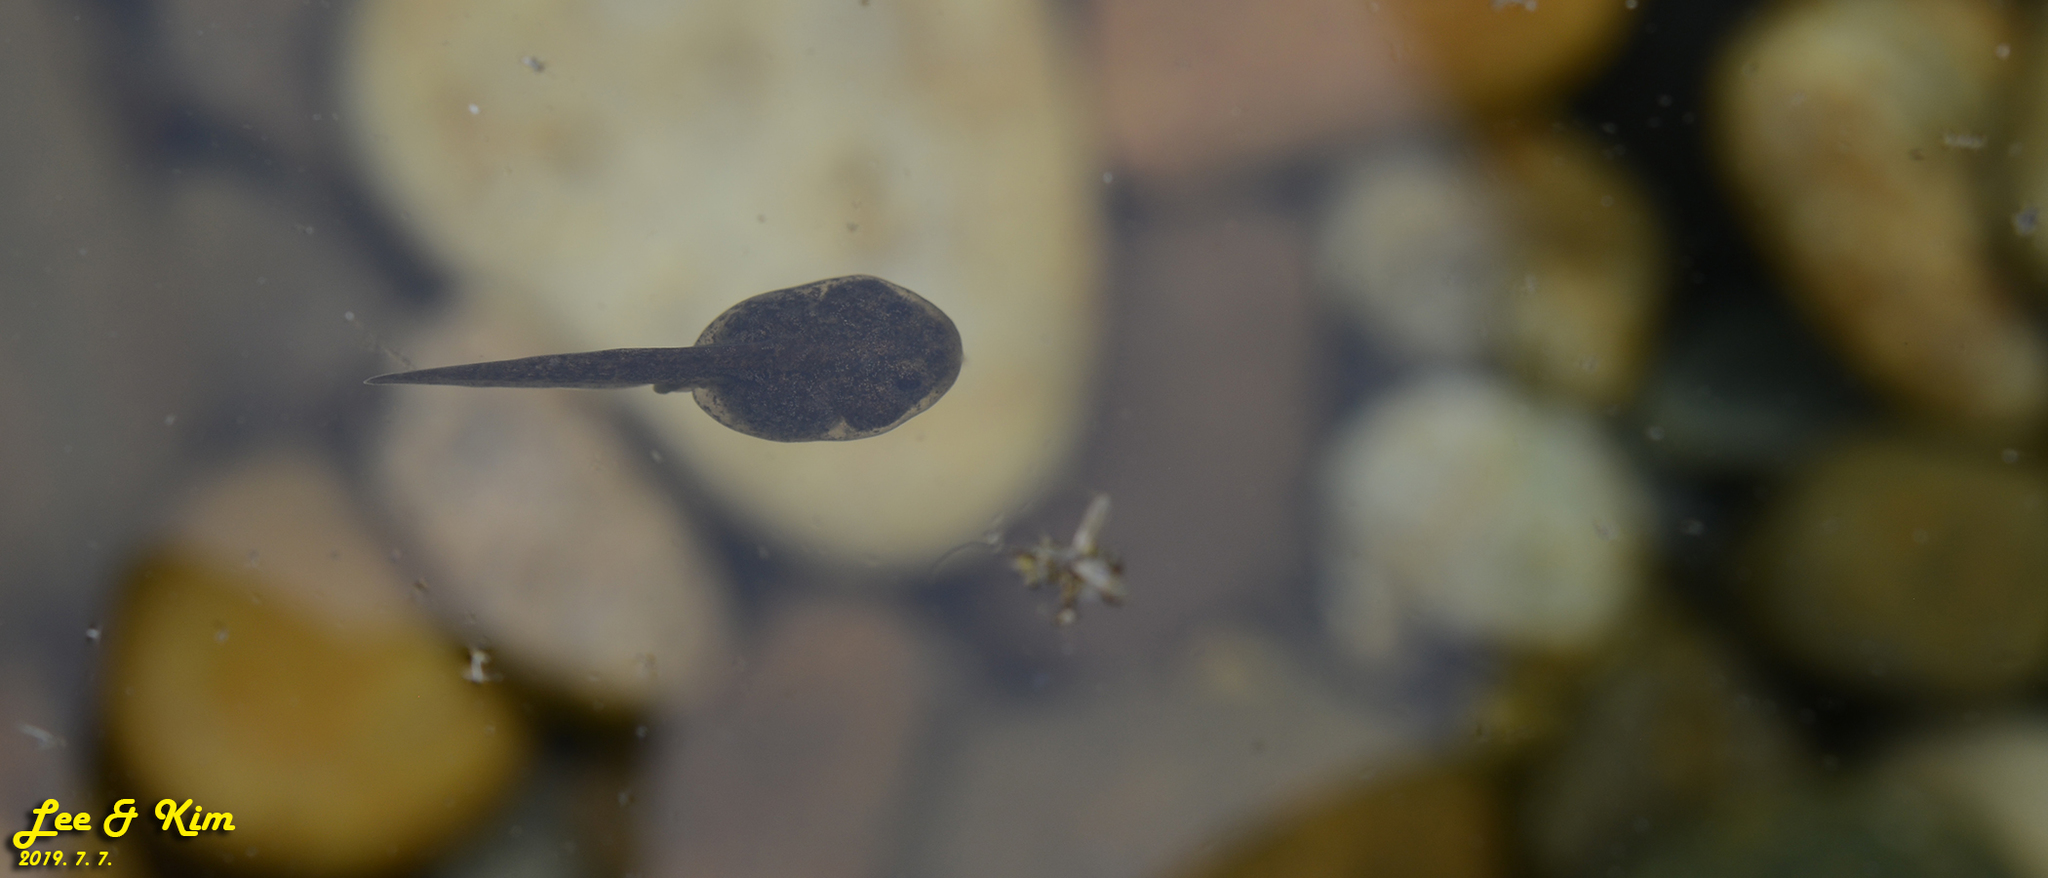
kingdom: Animalia
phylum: Chordata
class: Amphibia
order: Anura
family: Bombinatoridae
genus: Bombina
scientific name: Bombina orientalis
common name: Oriental firebelly toad
